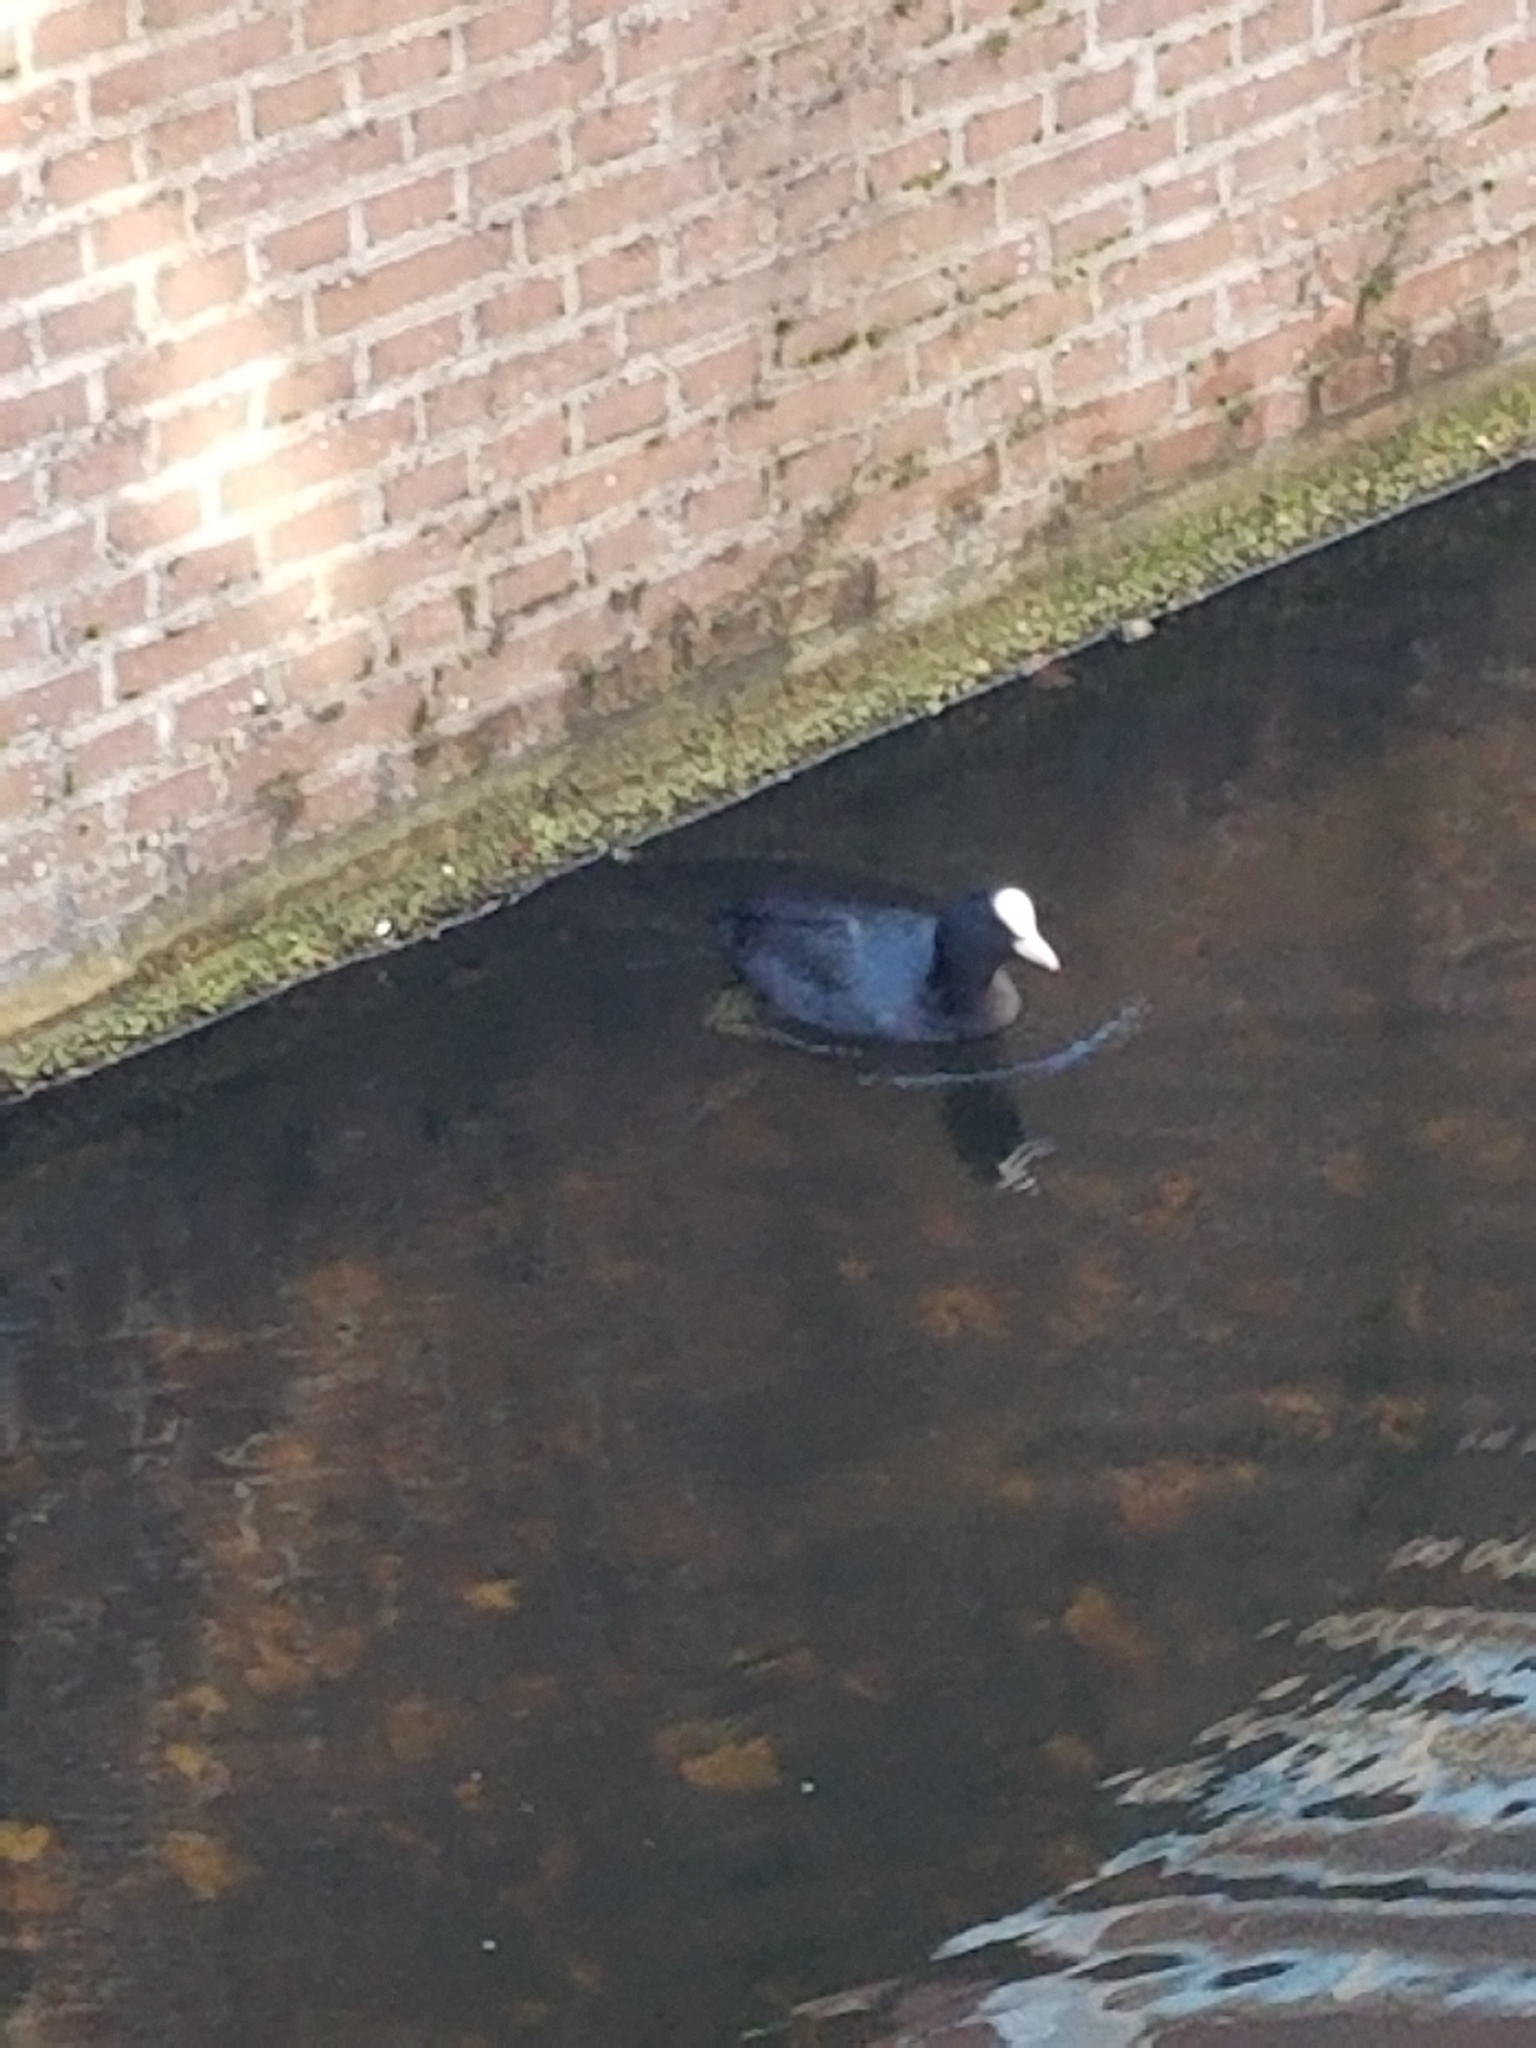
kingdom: Animalia
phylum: Chordata
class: Aves
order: Gruiformes
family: Rallidae
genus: Fulica
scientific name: Fulica atra
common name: Eurasian coot
